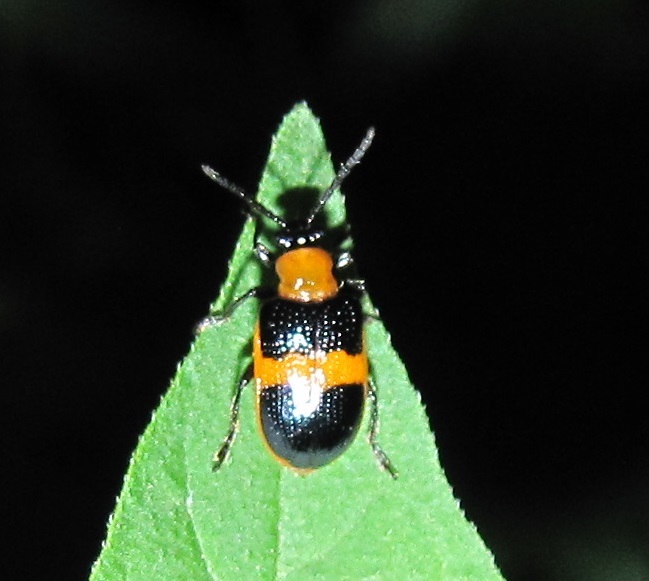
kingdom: Animalia
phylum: Arthropoda
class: Insecta
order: Coleoptera
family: Chrysomelidae
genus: Lema
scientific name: Lema solani
